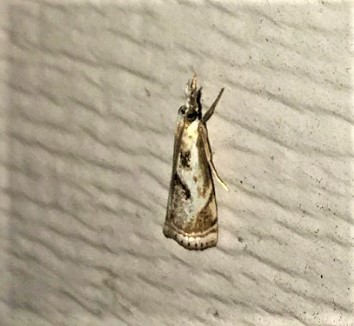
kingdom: Animalia
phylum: Arthropoda
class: Insecta
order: Lepidoptera
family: Crambidae
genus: Microcrambus
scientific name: Microcrambus elegans
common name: Elegant grass-veneer
